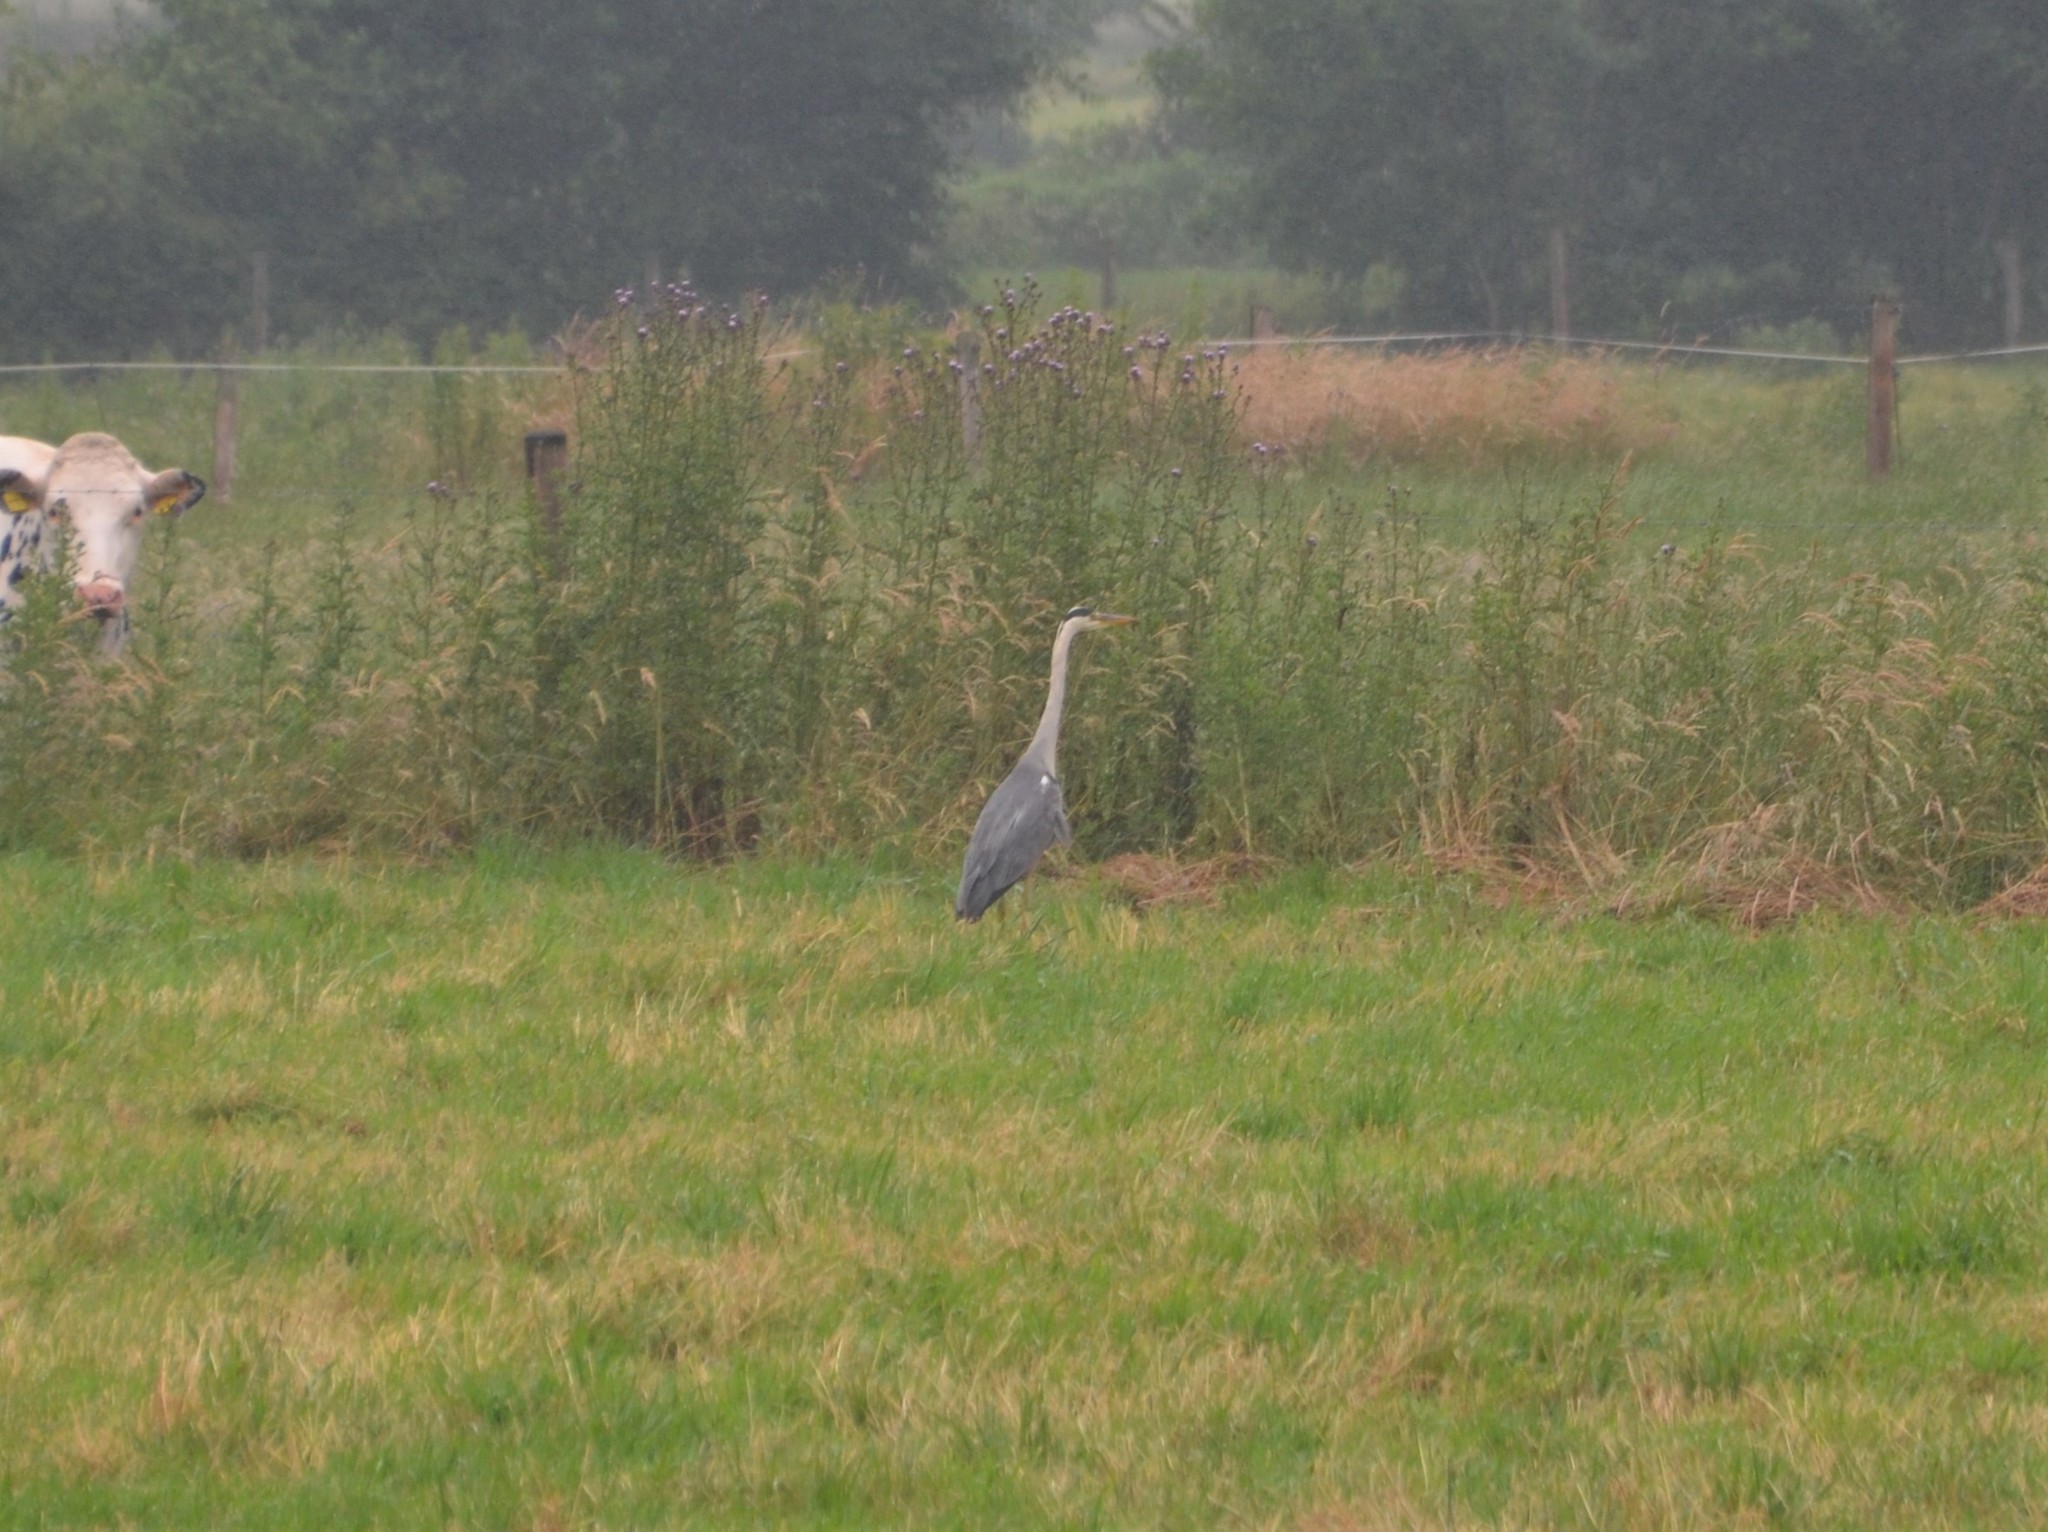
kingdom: Animalia
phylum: Chordata
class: Aves
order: Pelecaniformes
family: Ardeidae
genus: Ardea
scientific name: Ardea cinerea
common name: Grey heron
